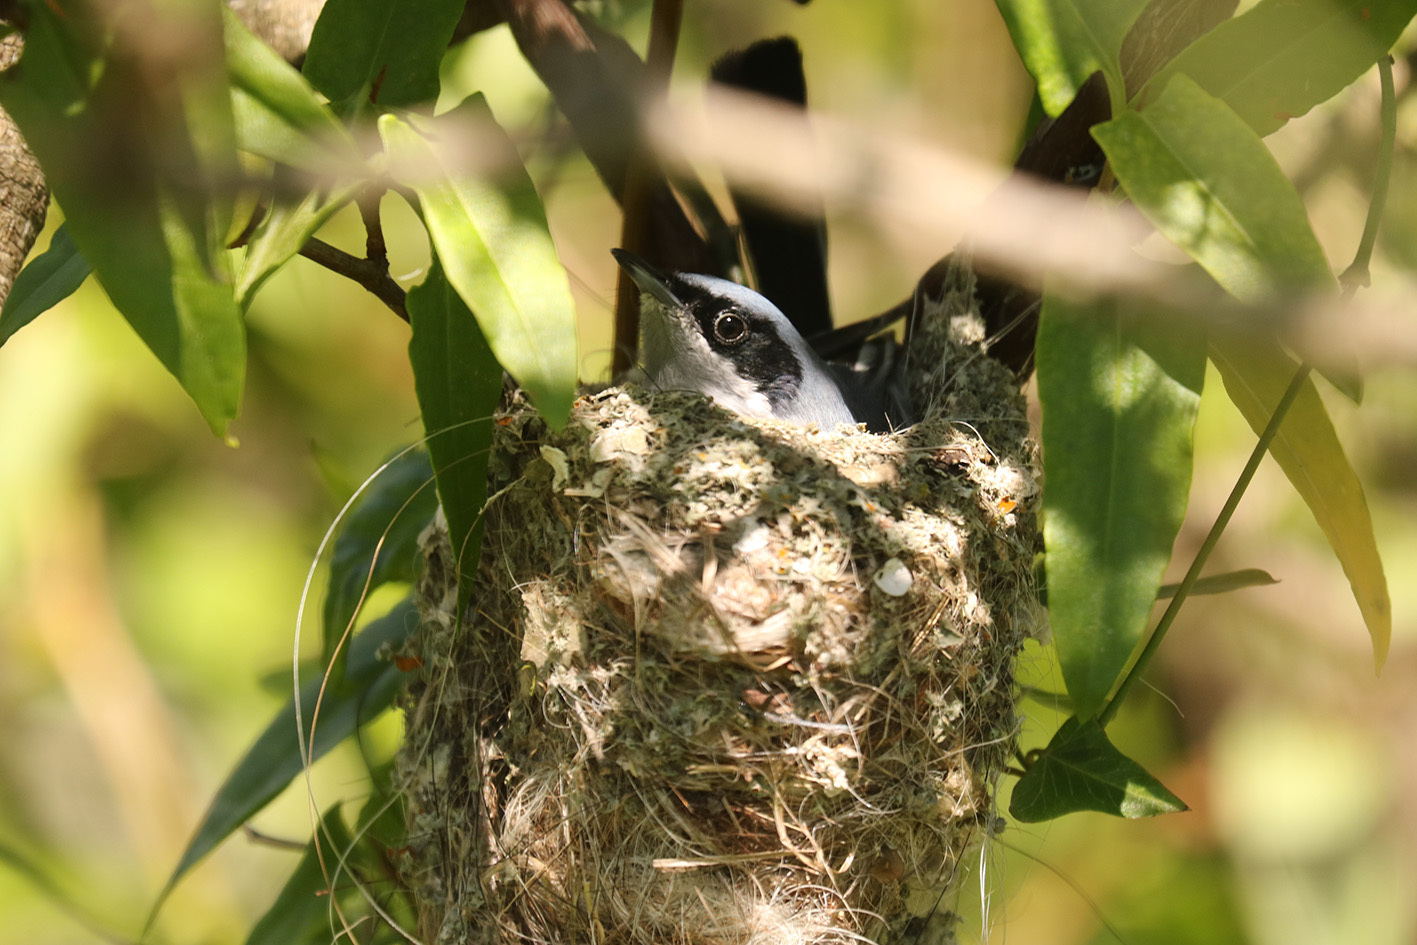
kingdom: Animalia
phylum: Chordata
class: Aves
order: Passeriformes
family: Polioptilidae
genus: Polioptila
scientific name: Polioptila dumicola
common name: Masked gnatcatcher
